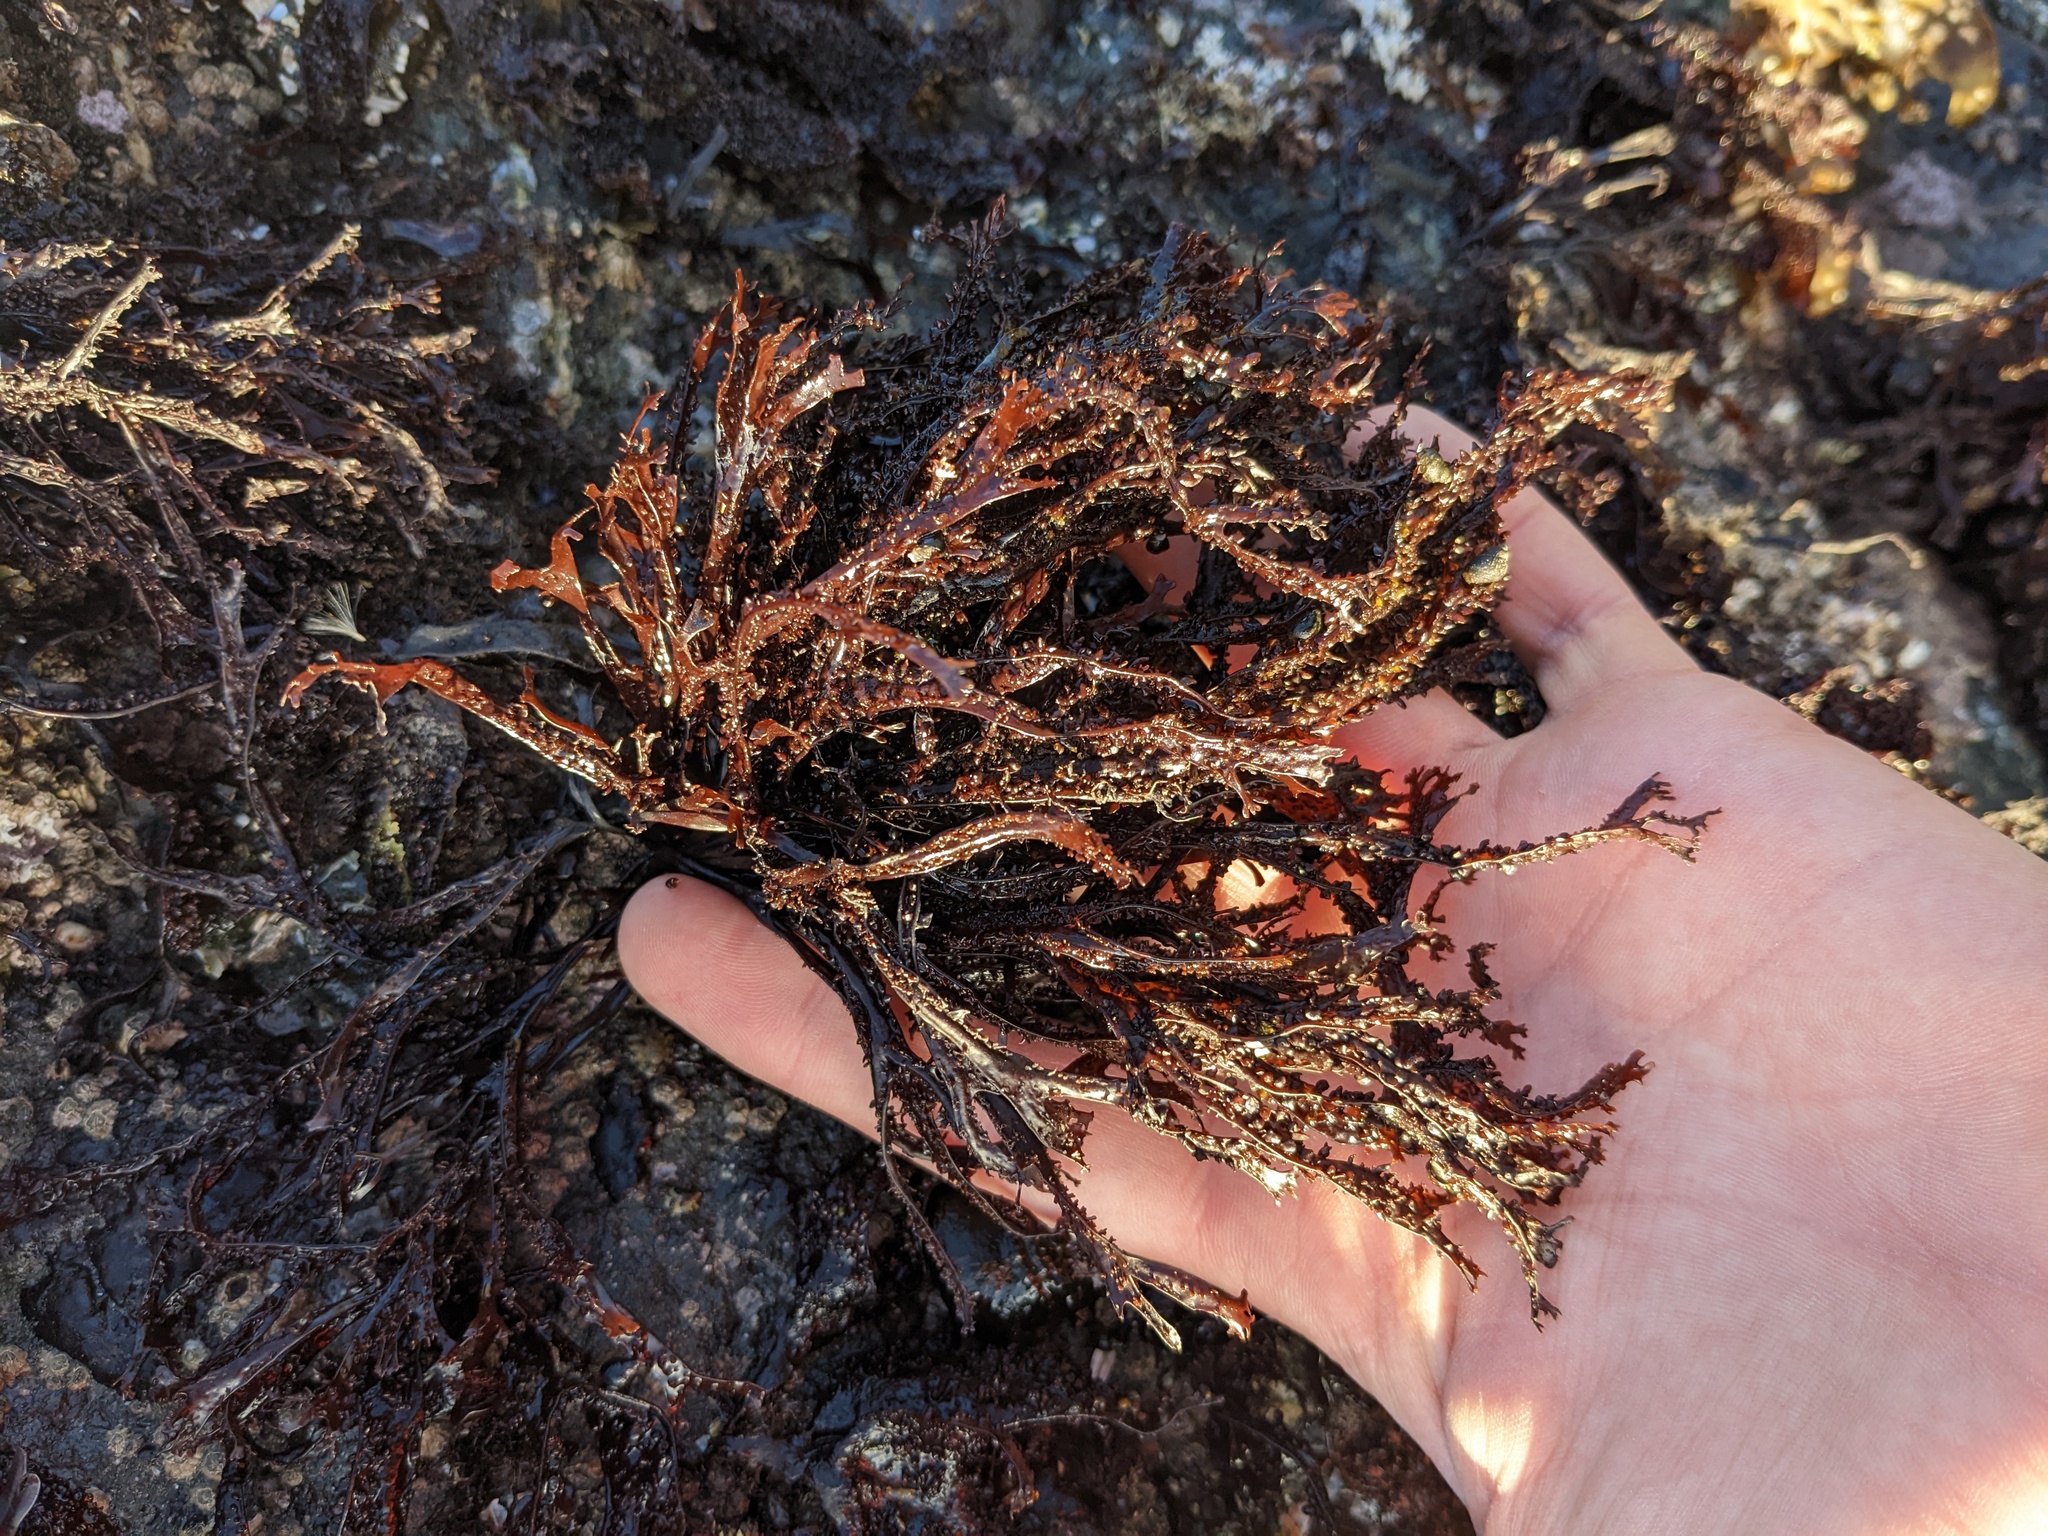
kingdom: Plantae
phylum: Rhodophyta
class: Florideophyceae
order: Gigartinales
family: Phyllophoraceae
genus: Mastocarpus
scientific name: Mastocarpus jardinii
